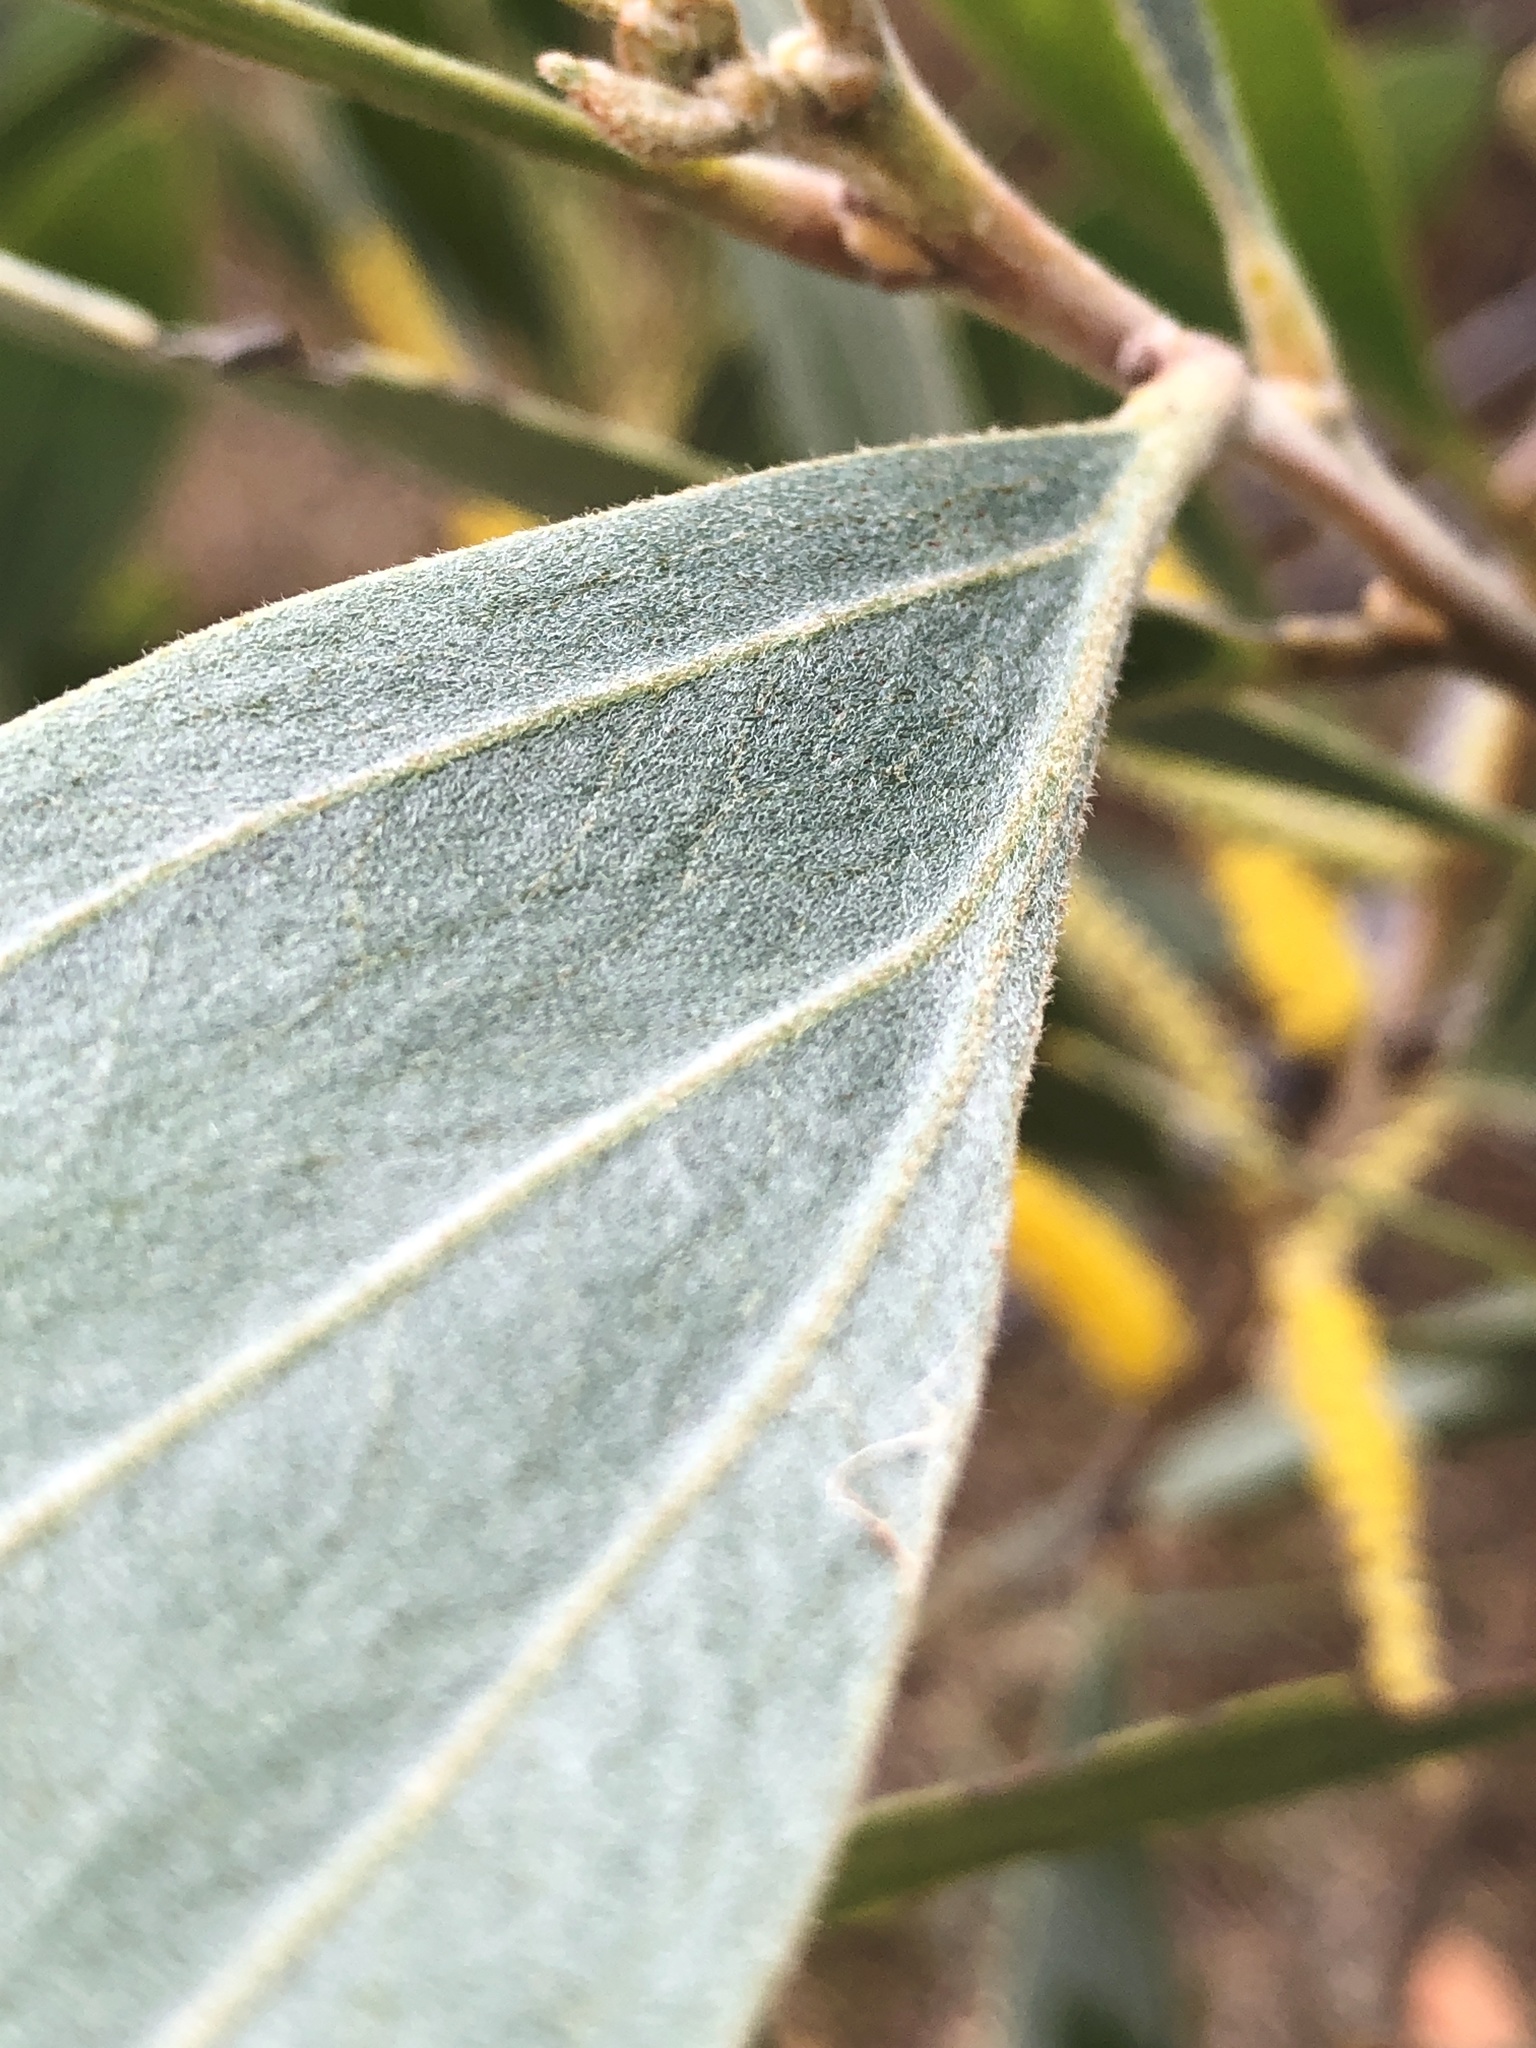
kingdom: Plantae
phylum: Tracheophyta
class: Magnoliopsida
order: Fabales
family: Fabaceae
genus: Acacia
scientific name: Acacia holosericea
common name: Candelabra wattle
